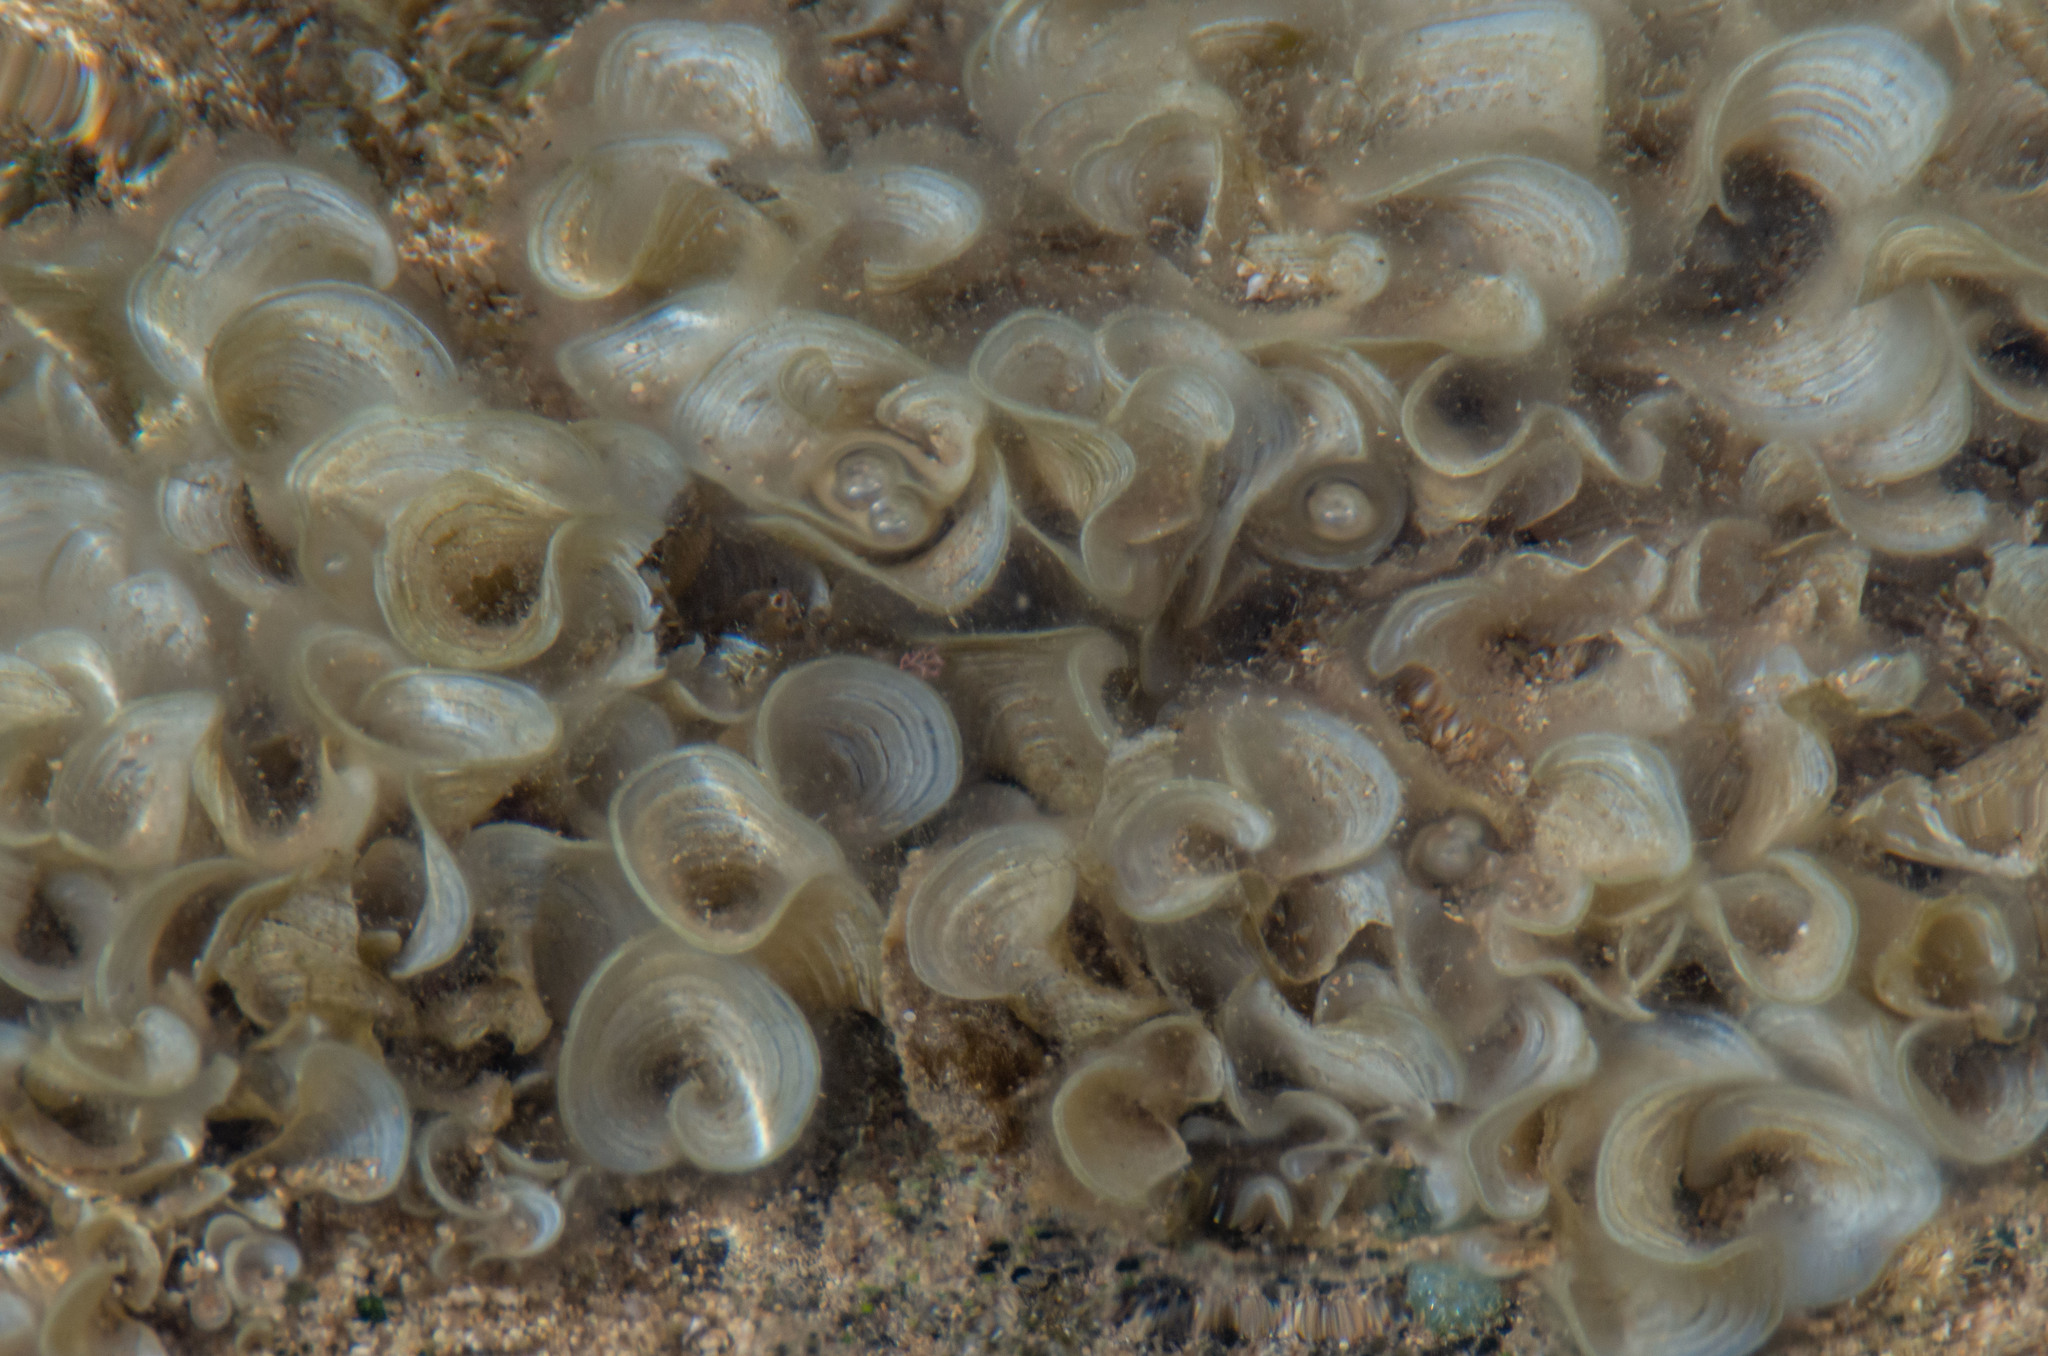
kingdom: Chromista
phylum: Ochrophyta
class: Phaeophyceae
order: Dictyotales
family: Dictyotaceae
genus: Padina
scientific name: Padina sanctae-crucis
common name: White scroll algae
